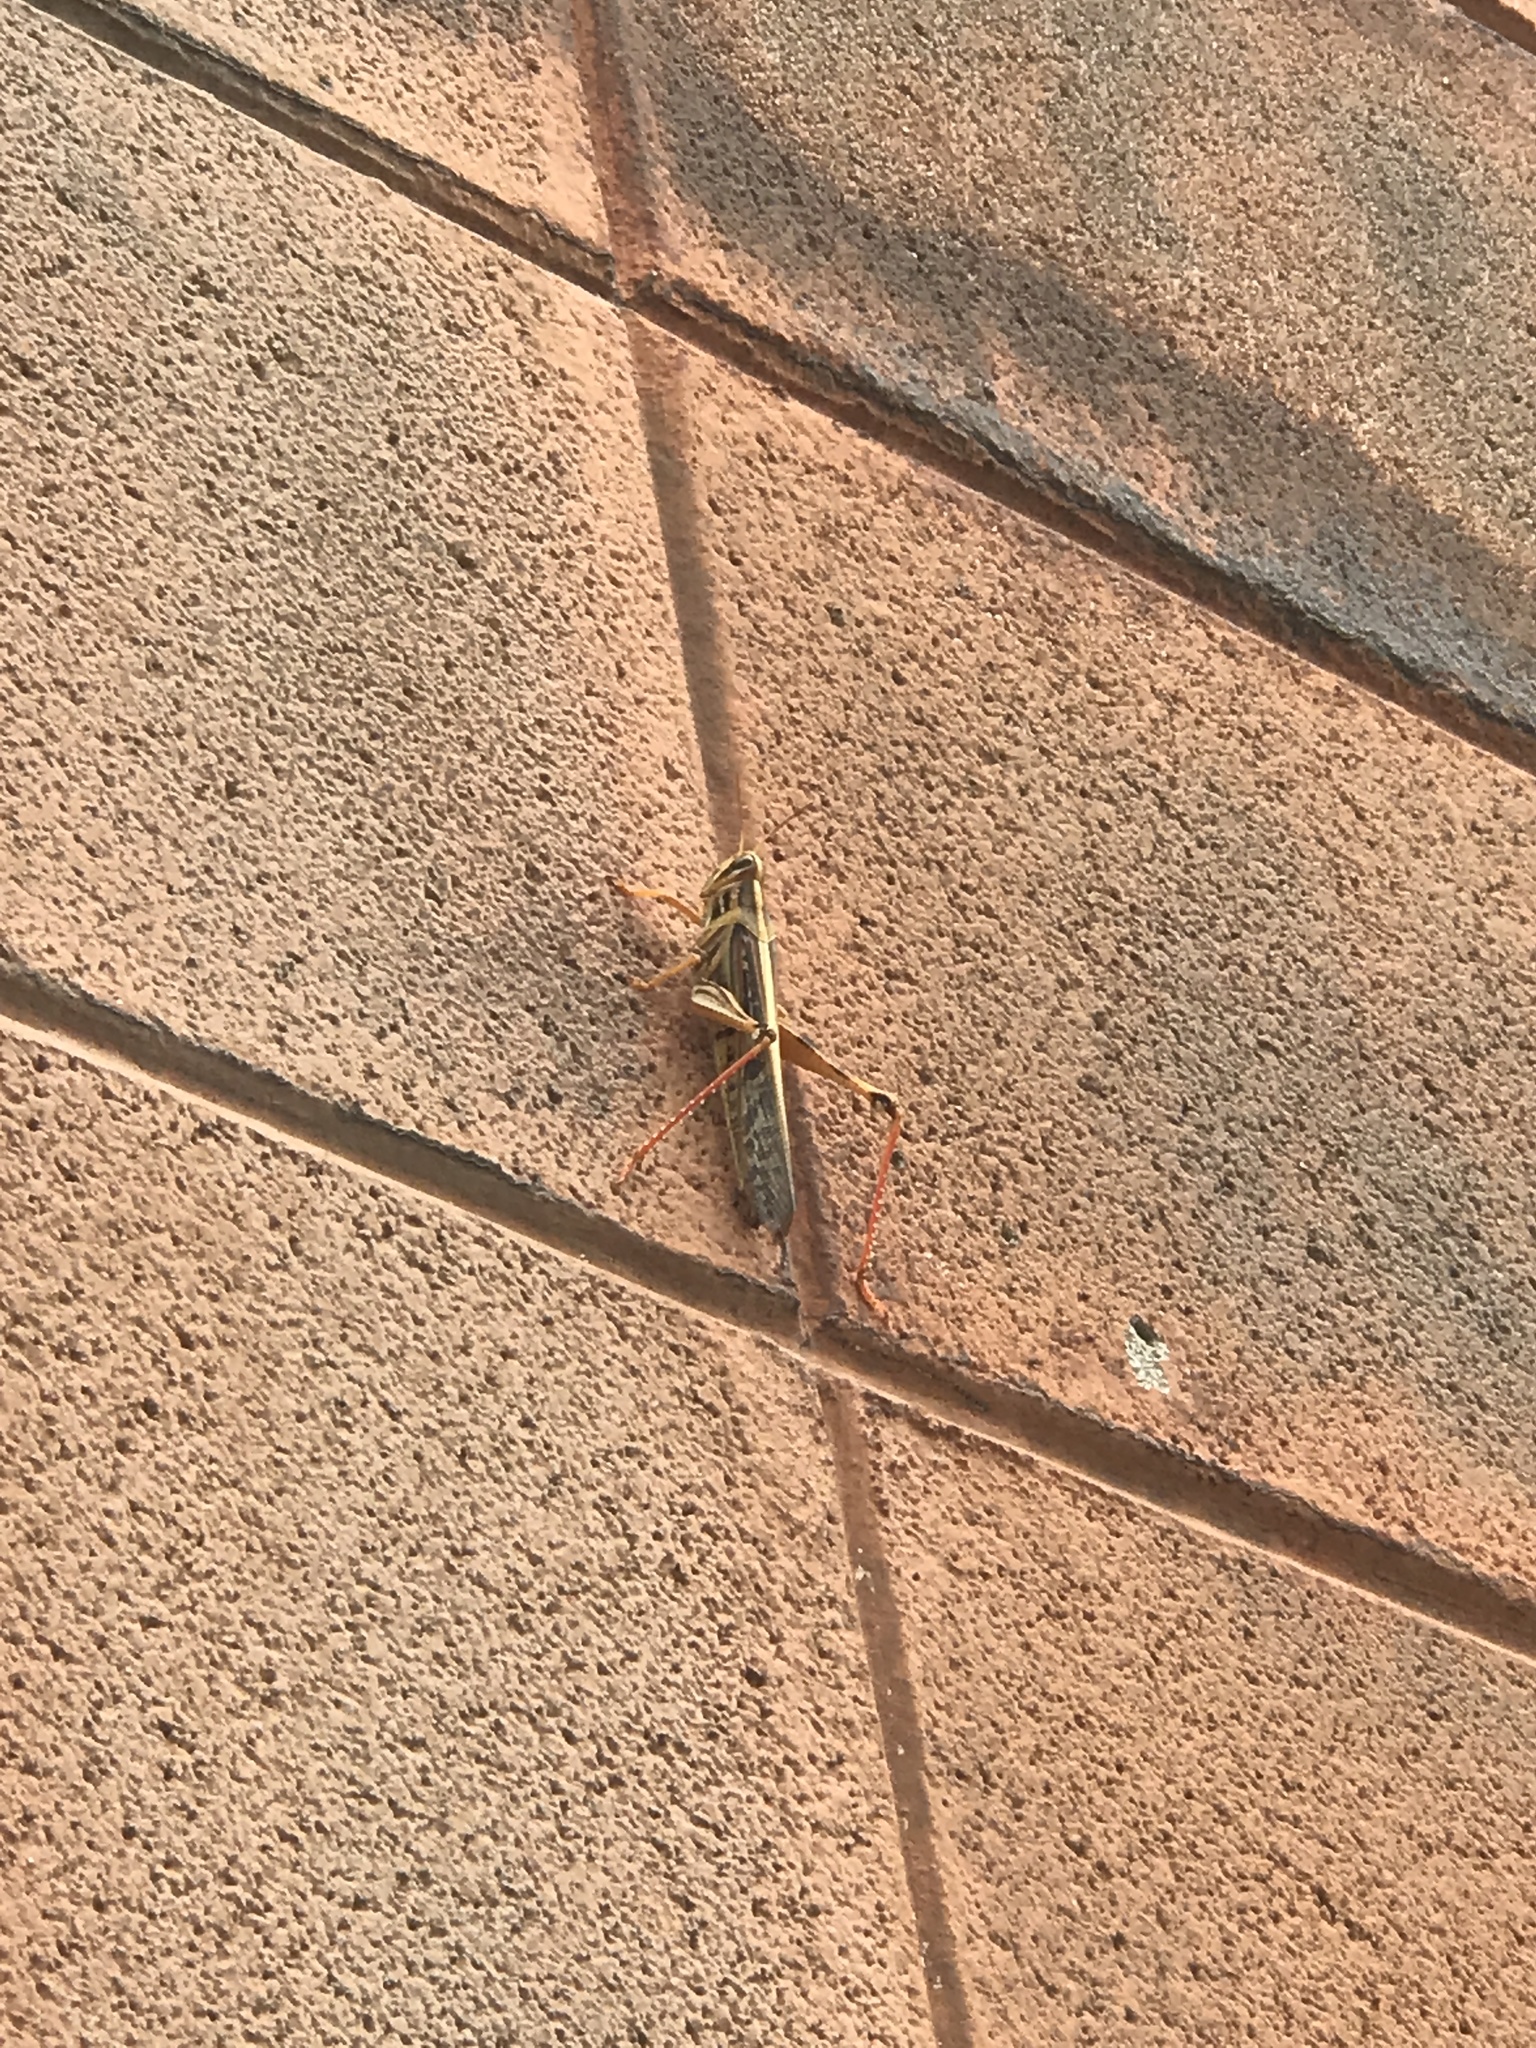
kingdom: Animalia
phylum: Arthropoda
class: Insecta
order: Orthoptera
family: Acrididae
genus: Schistocerca
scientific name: Schistocerca americana
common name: American bird locust
